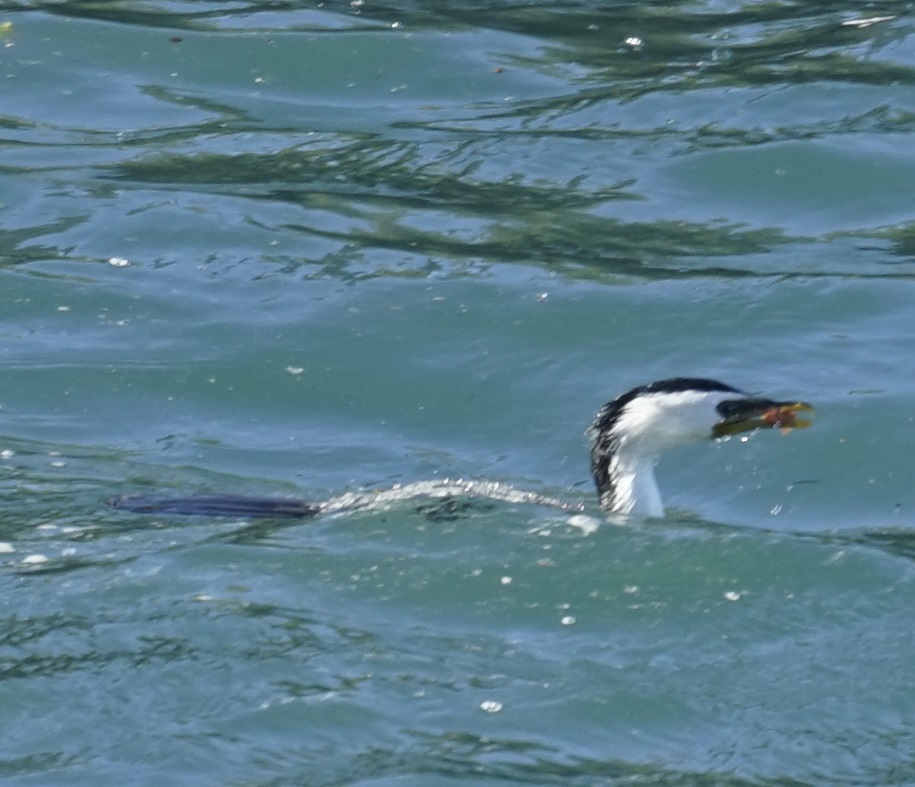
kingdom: Animalia
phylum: Chordata
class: Aves
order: Suliformes
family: Phalacrocoracidae
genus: Microcarbo
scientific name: Microcarbo melanoleucos
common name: Little pied cormorant
